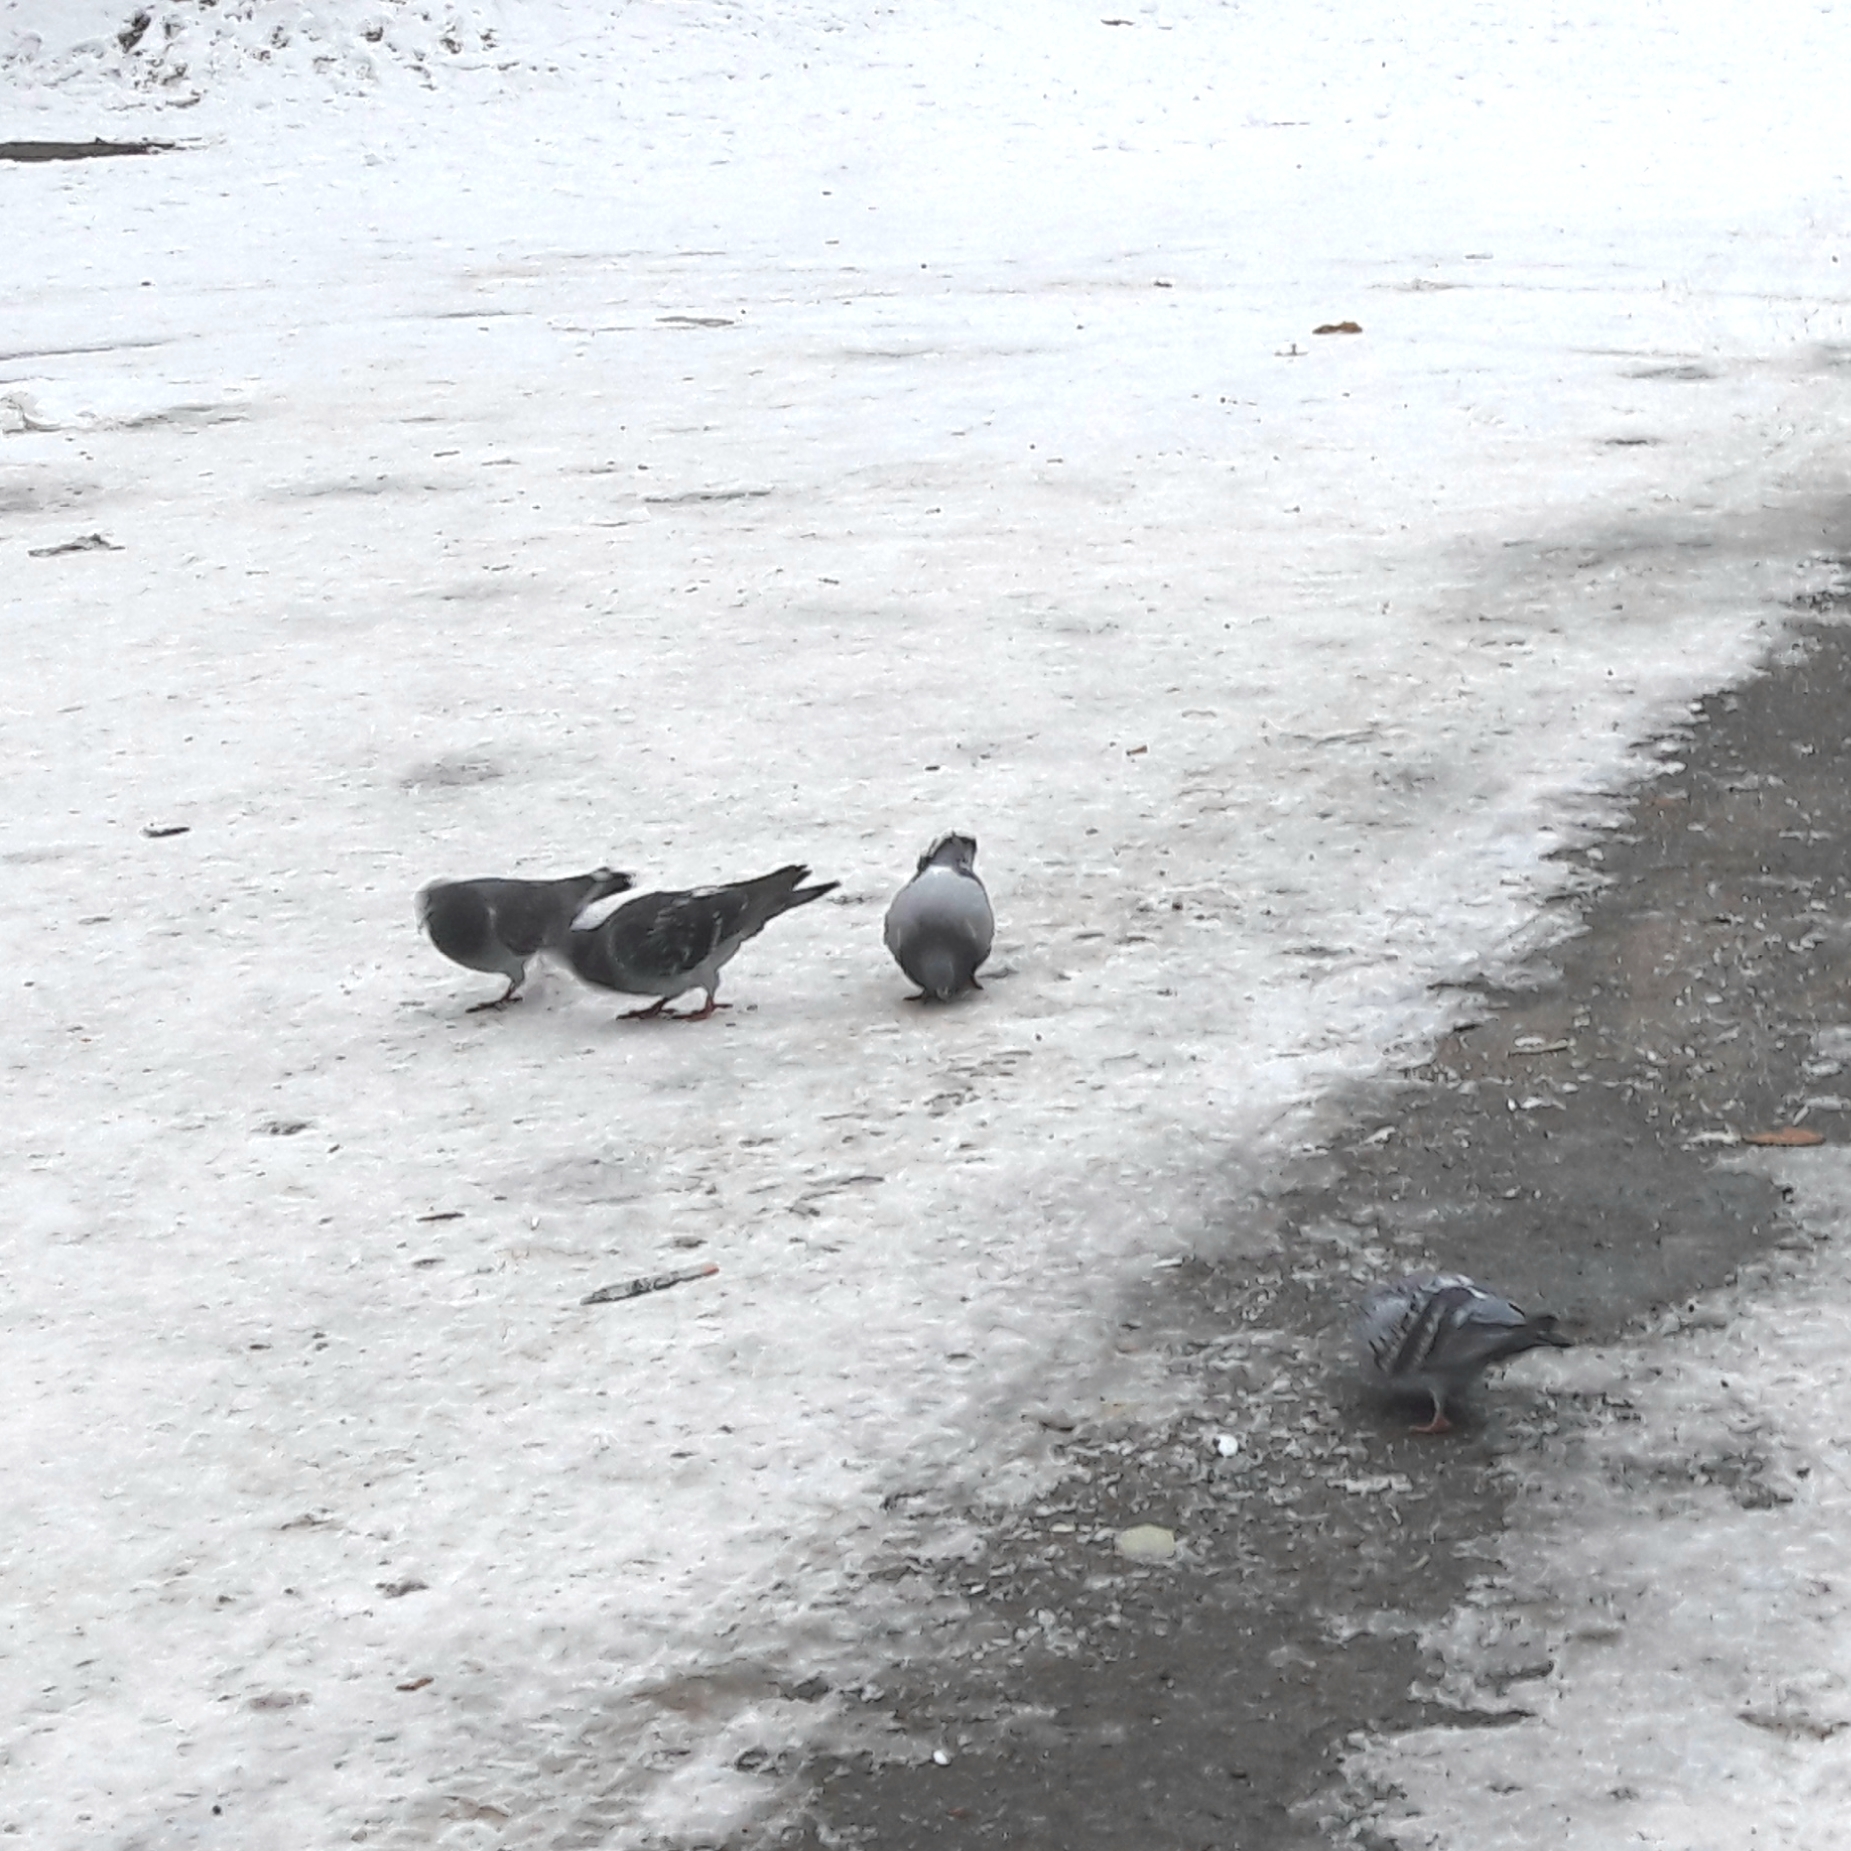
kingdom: Animalia
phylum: Chordata
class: Aves
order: Columbiformes
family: Columbidae
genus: Columba
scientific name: Columba livia
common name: Rock pigeon
